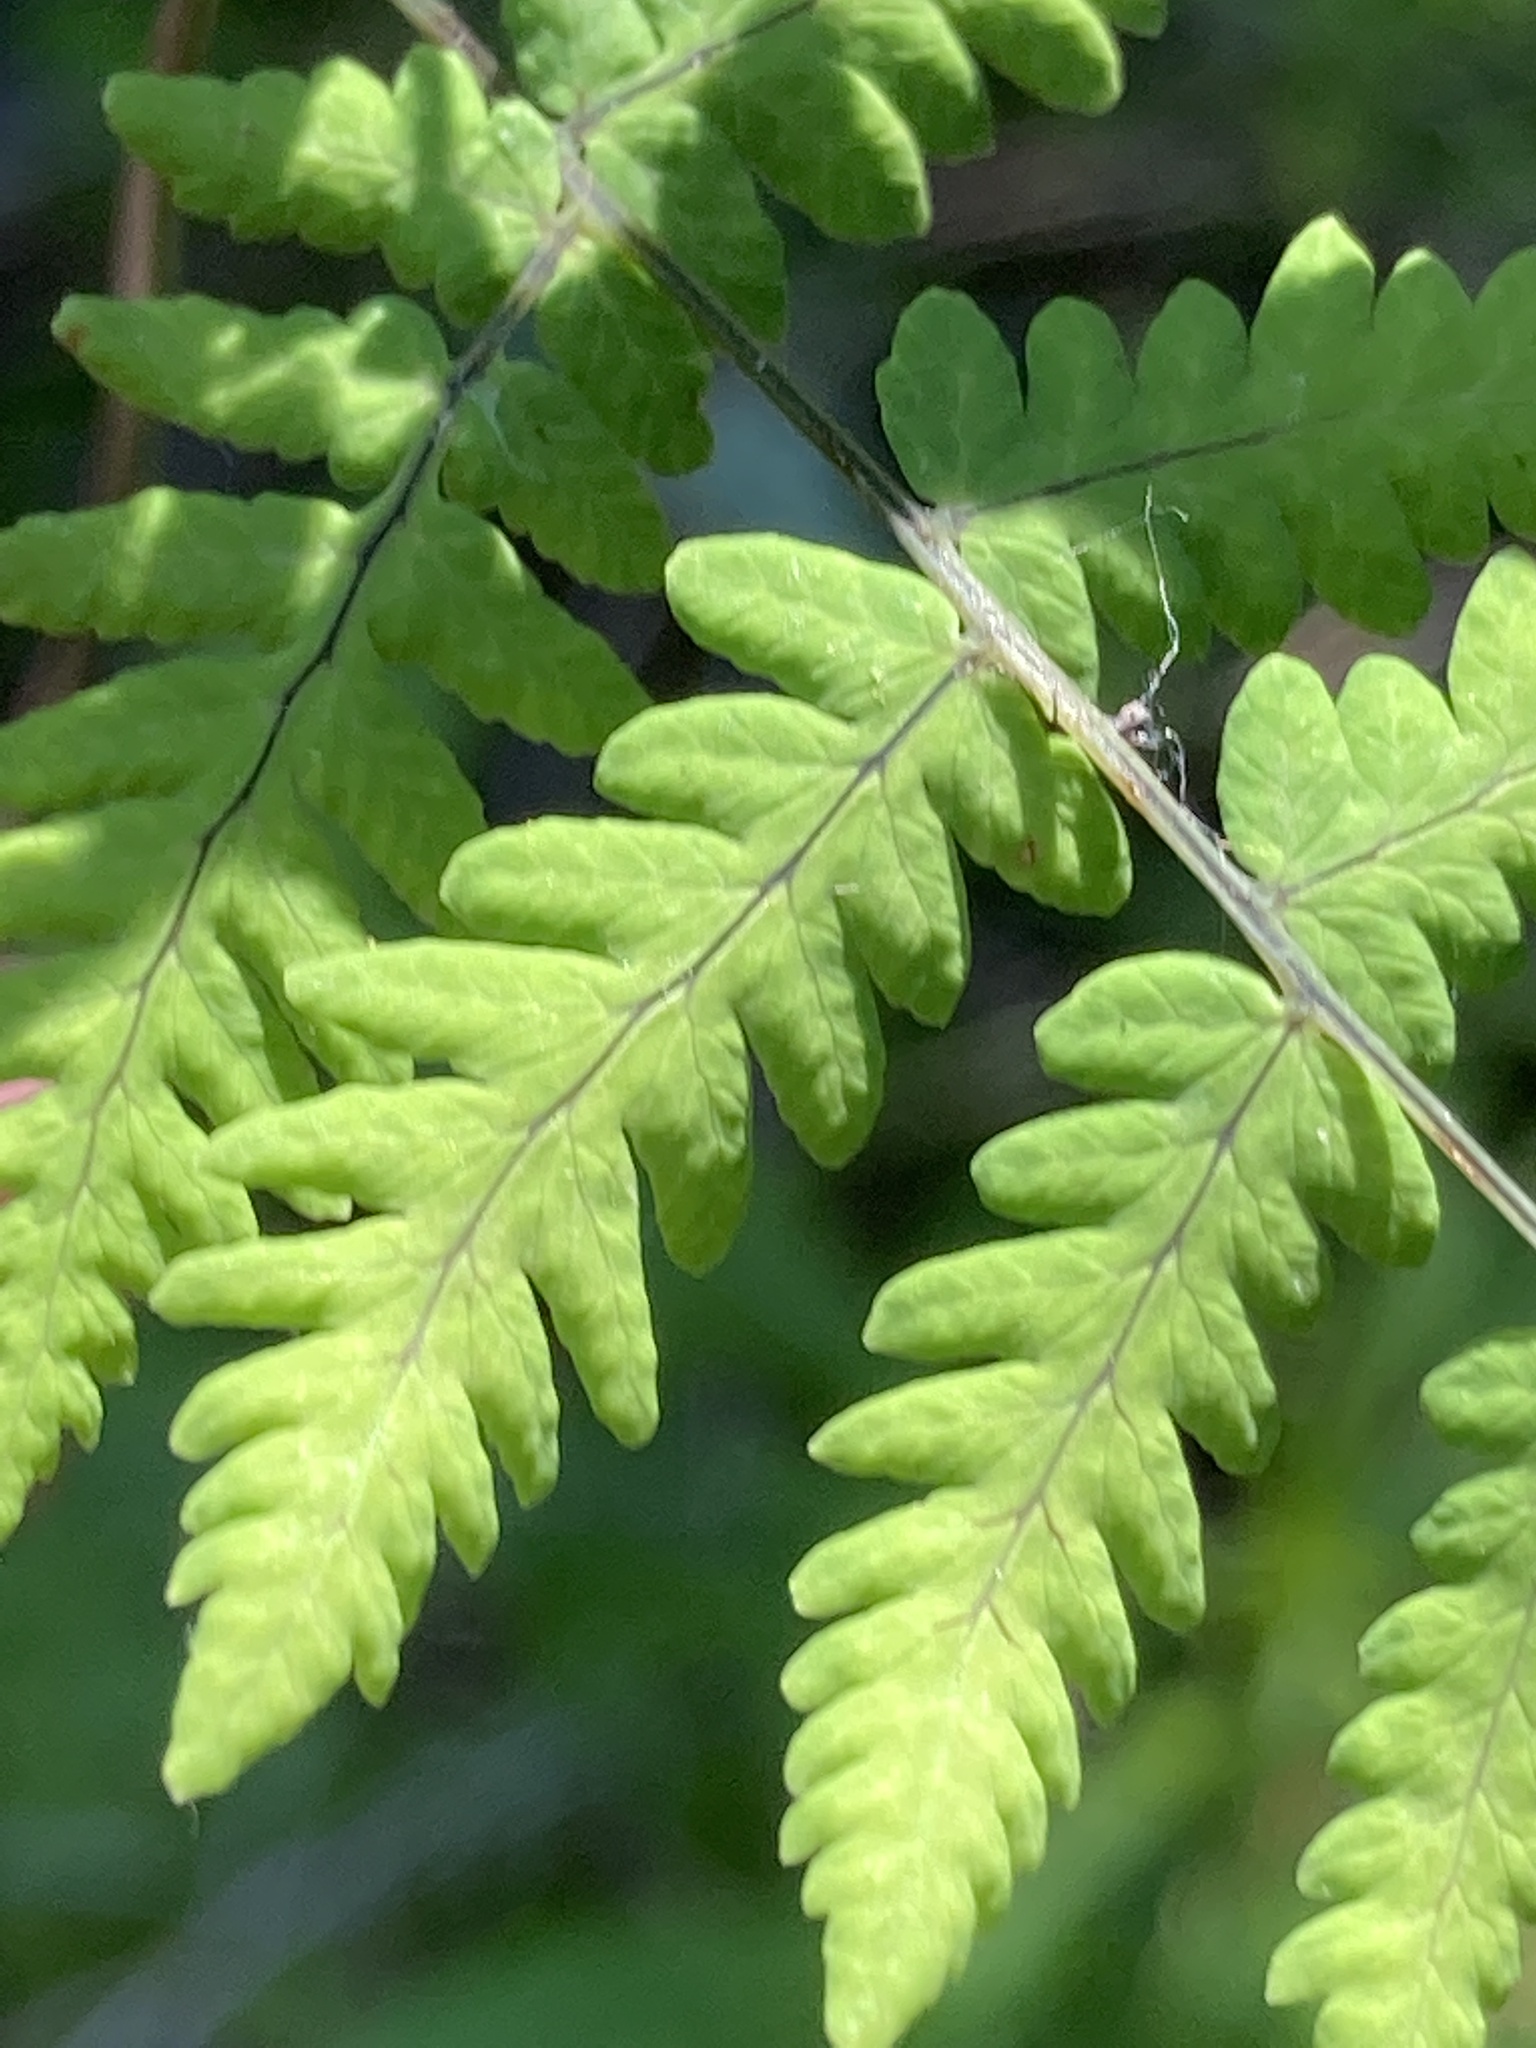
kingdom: Plantae
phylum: Tracheophyta
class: Polypodiopsida
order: Polypodiales
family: Cystopteridaceae
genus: Gymnocarpium
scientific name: Gymnocarpium dryopteris
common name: Oak fern
